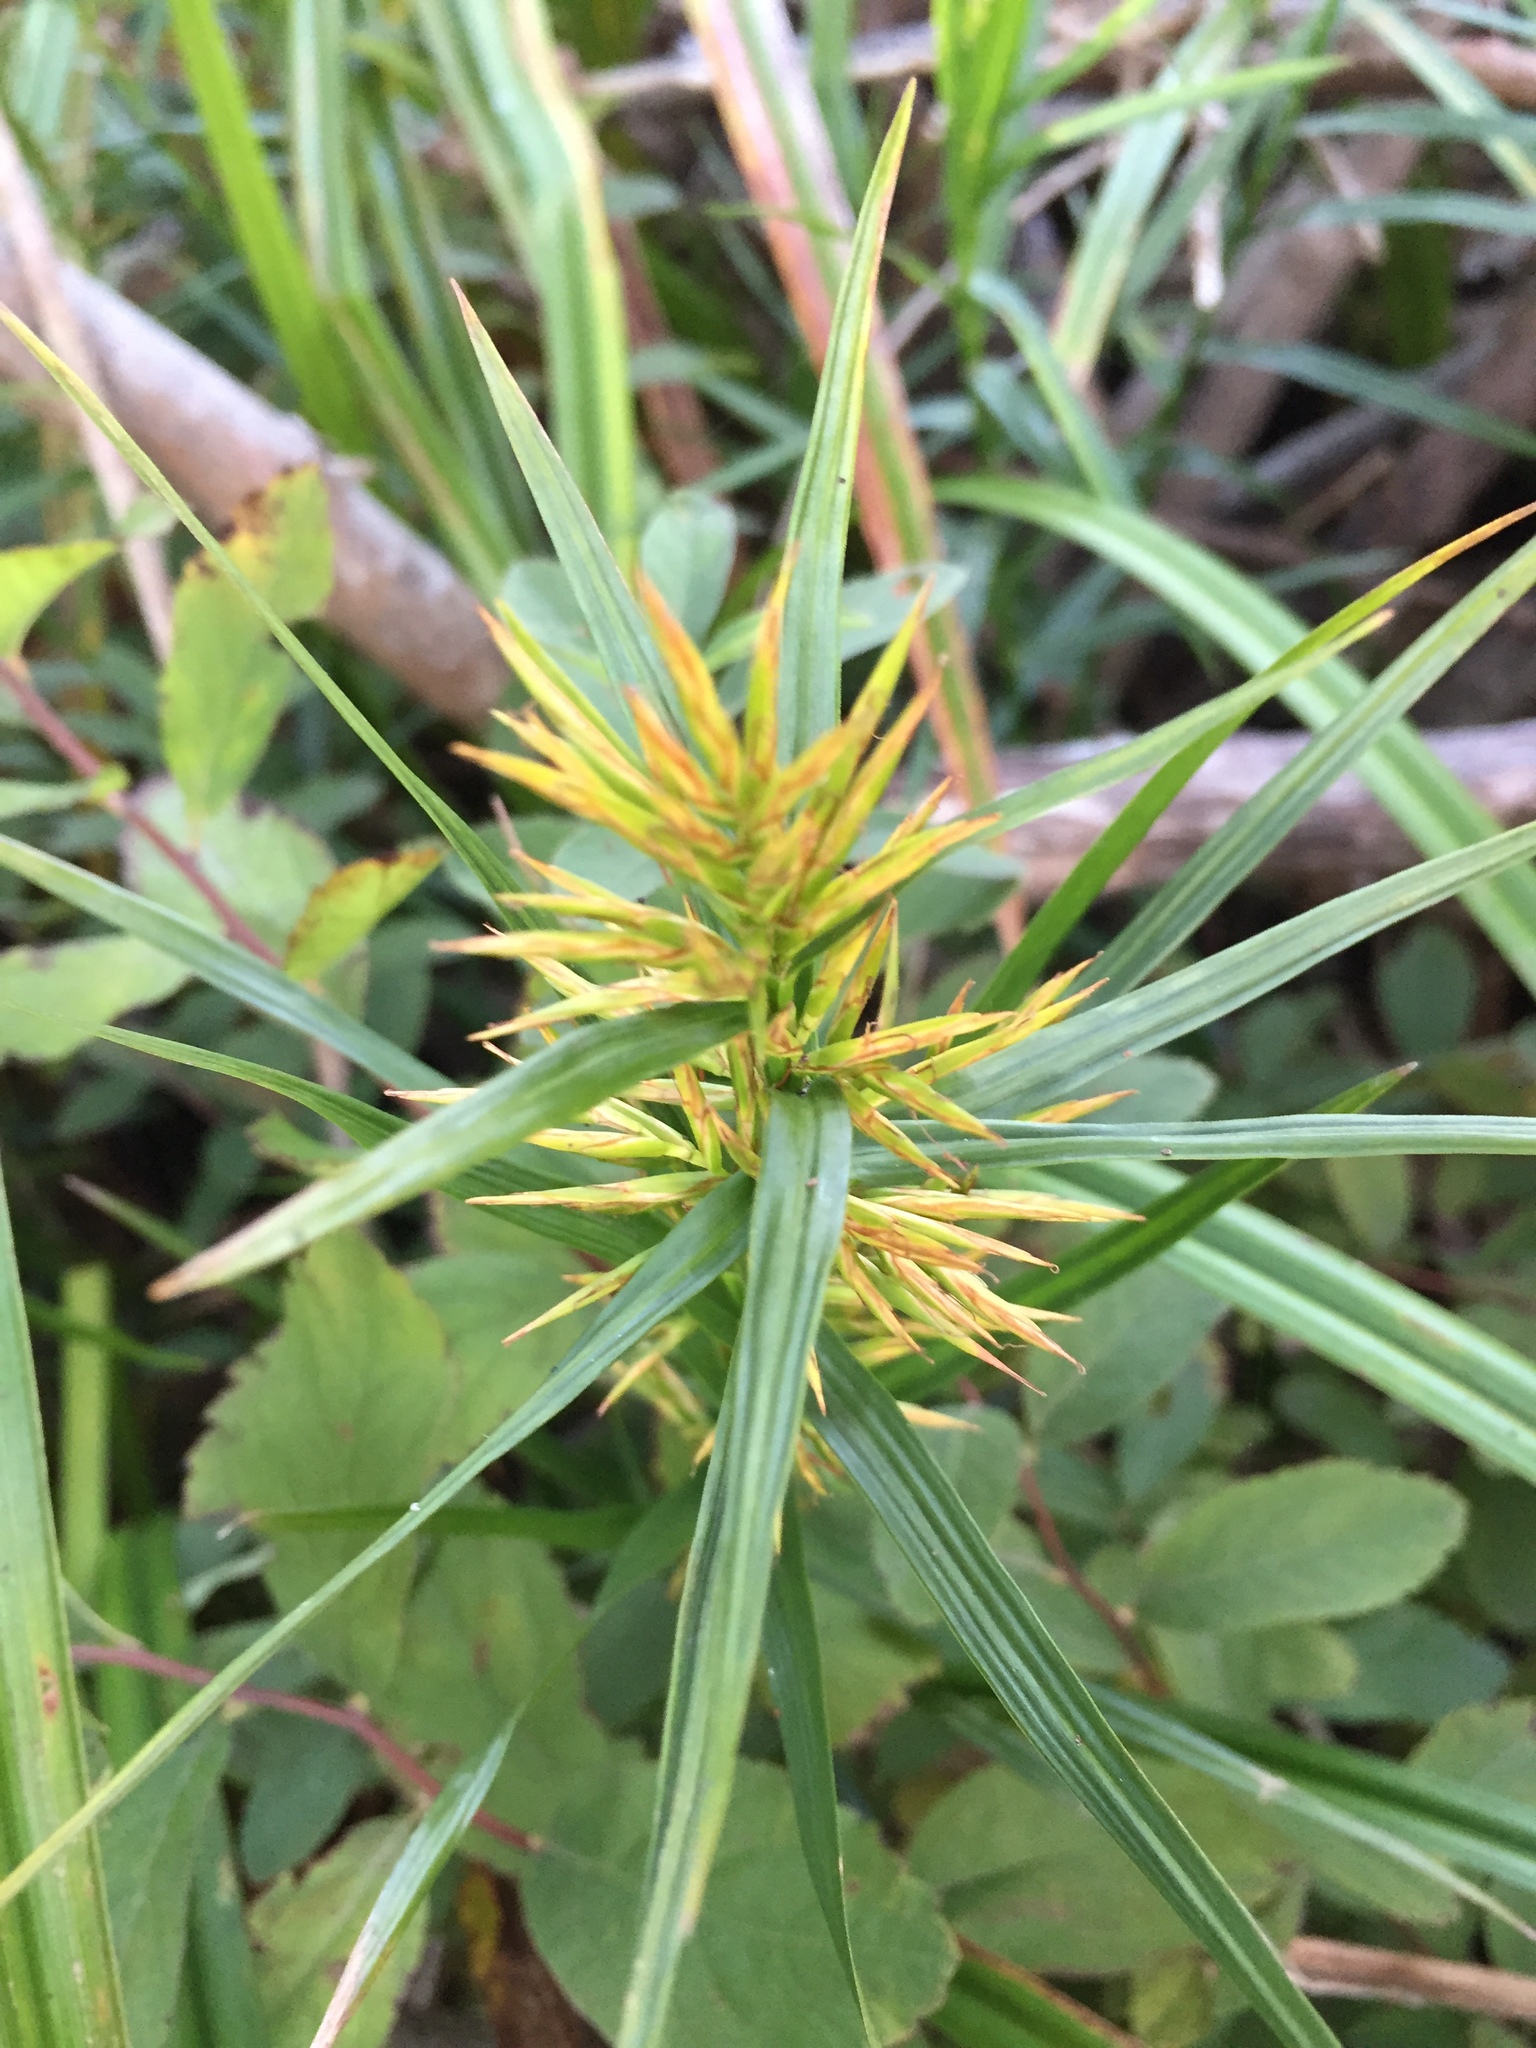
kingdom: Plantae
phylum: Tracheophyta
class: Liliopsida
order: Poales
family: Cyperaceae
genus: Dulichium
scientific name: Dulichium arundinaceum
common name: Three-way sedge
